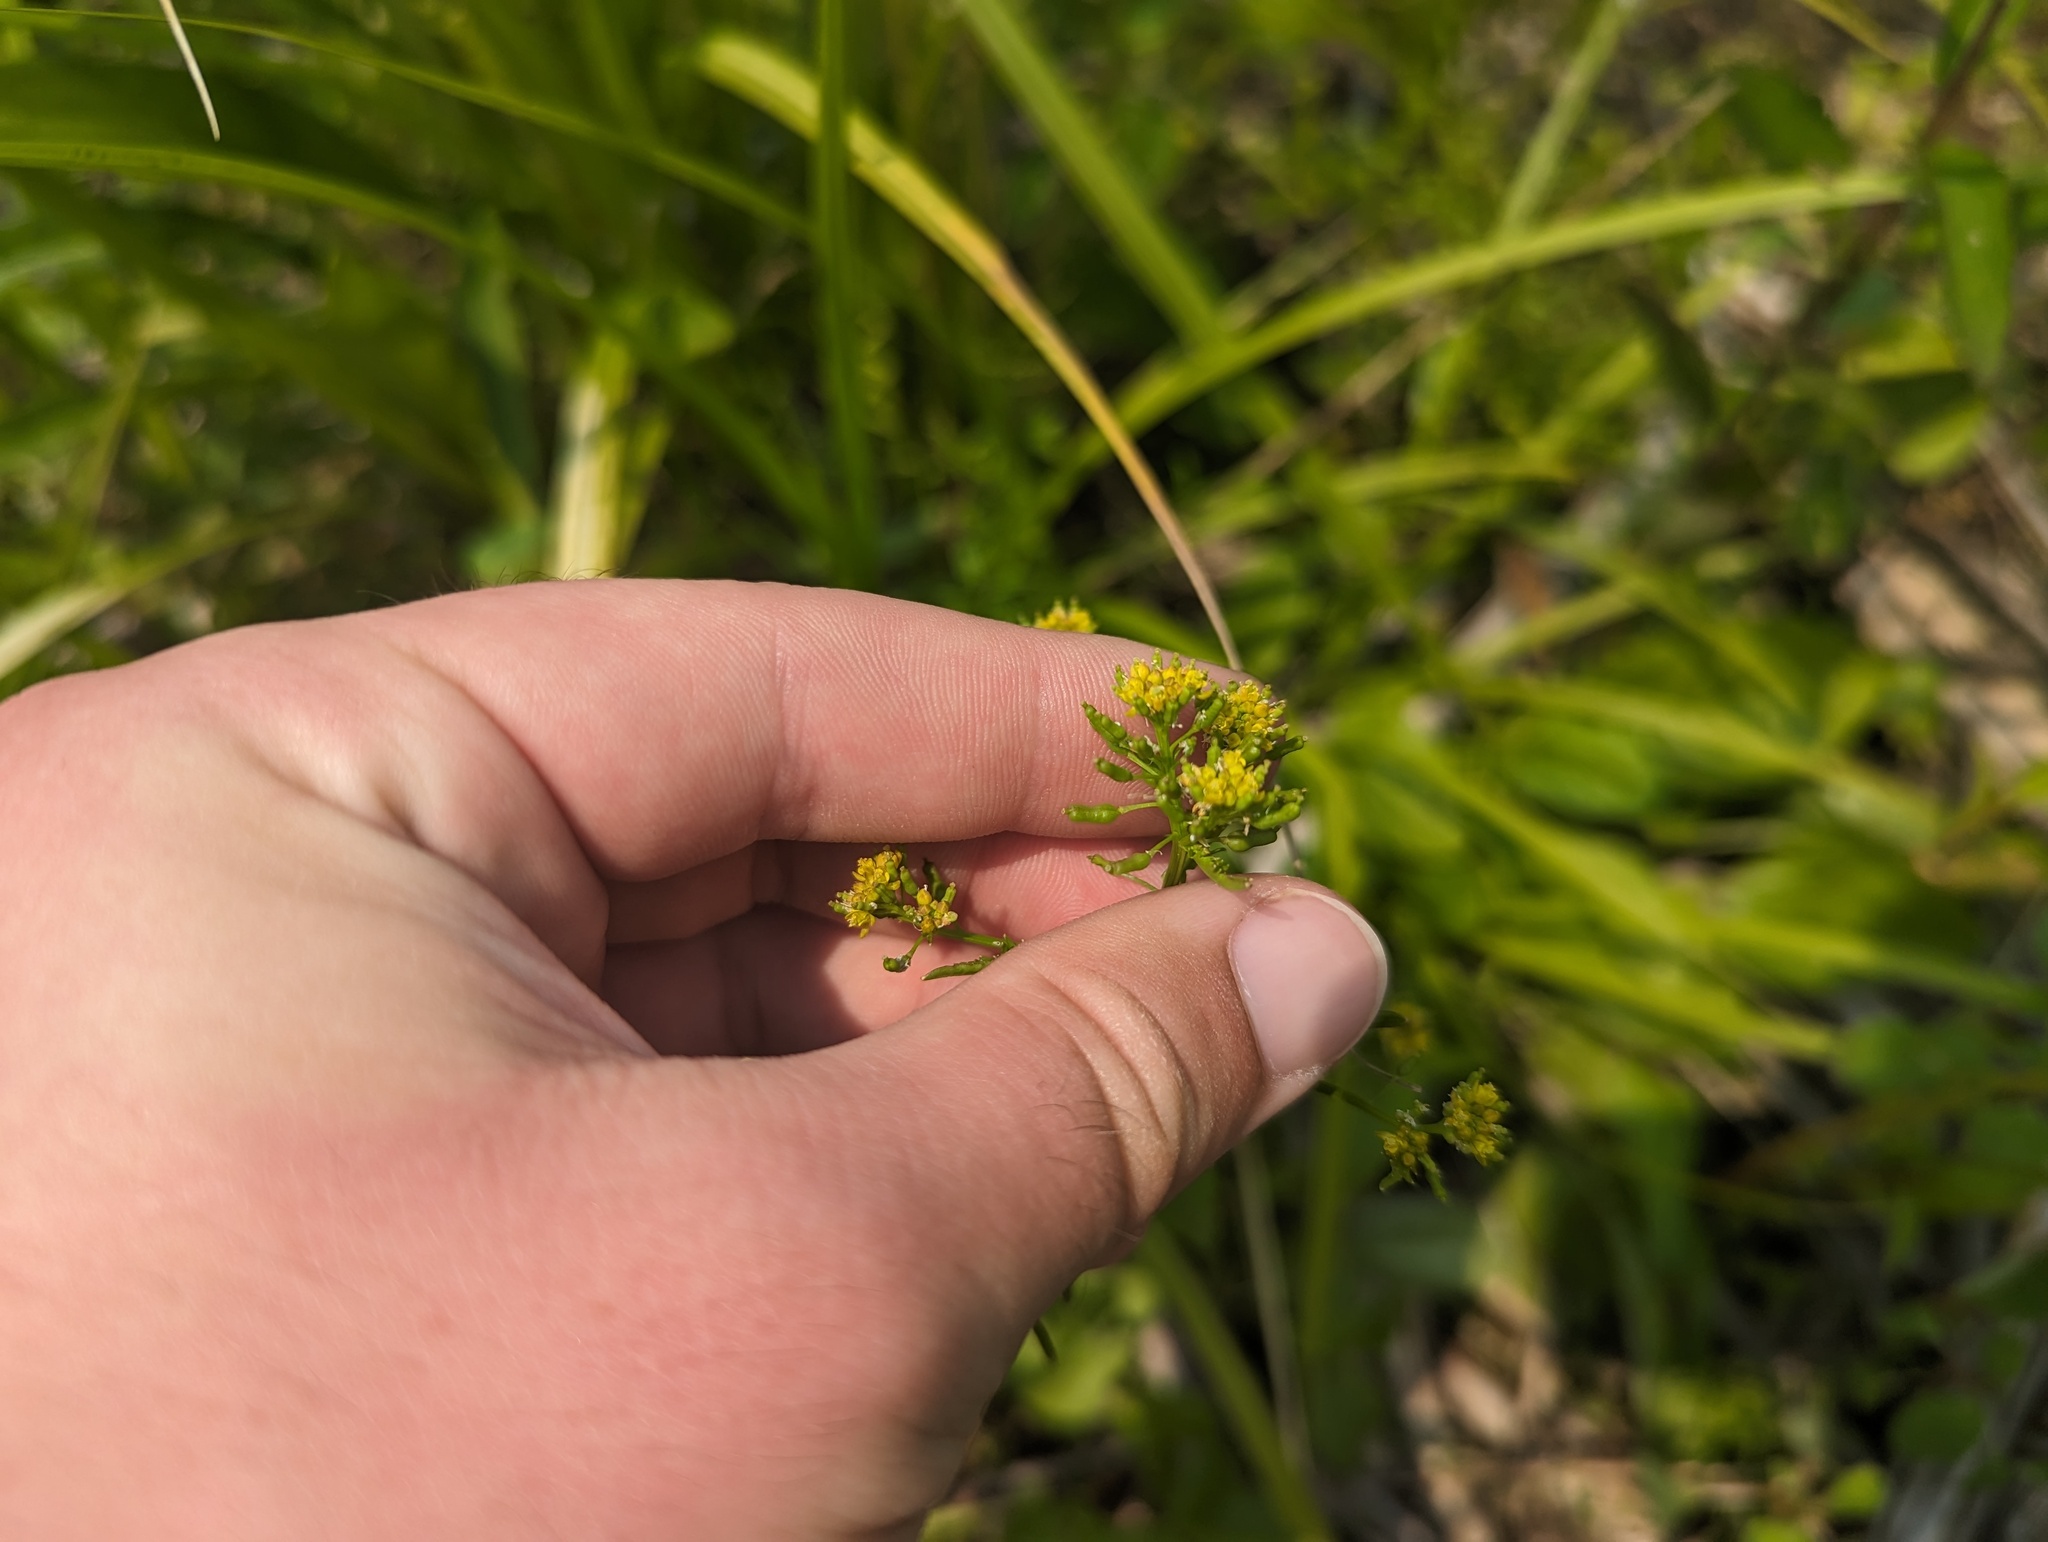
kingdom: Plantae
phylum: Tracheophyta
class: Magnoliopsida
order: Brassicales
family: Brassicaceae
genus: Rorippa
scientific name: Rorippa palustris
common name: Marsh yellow-cress
